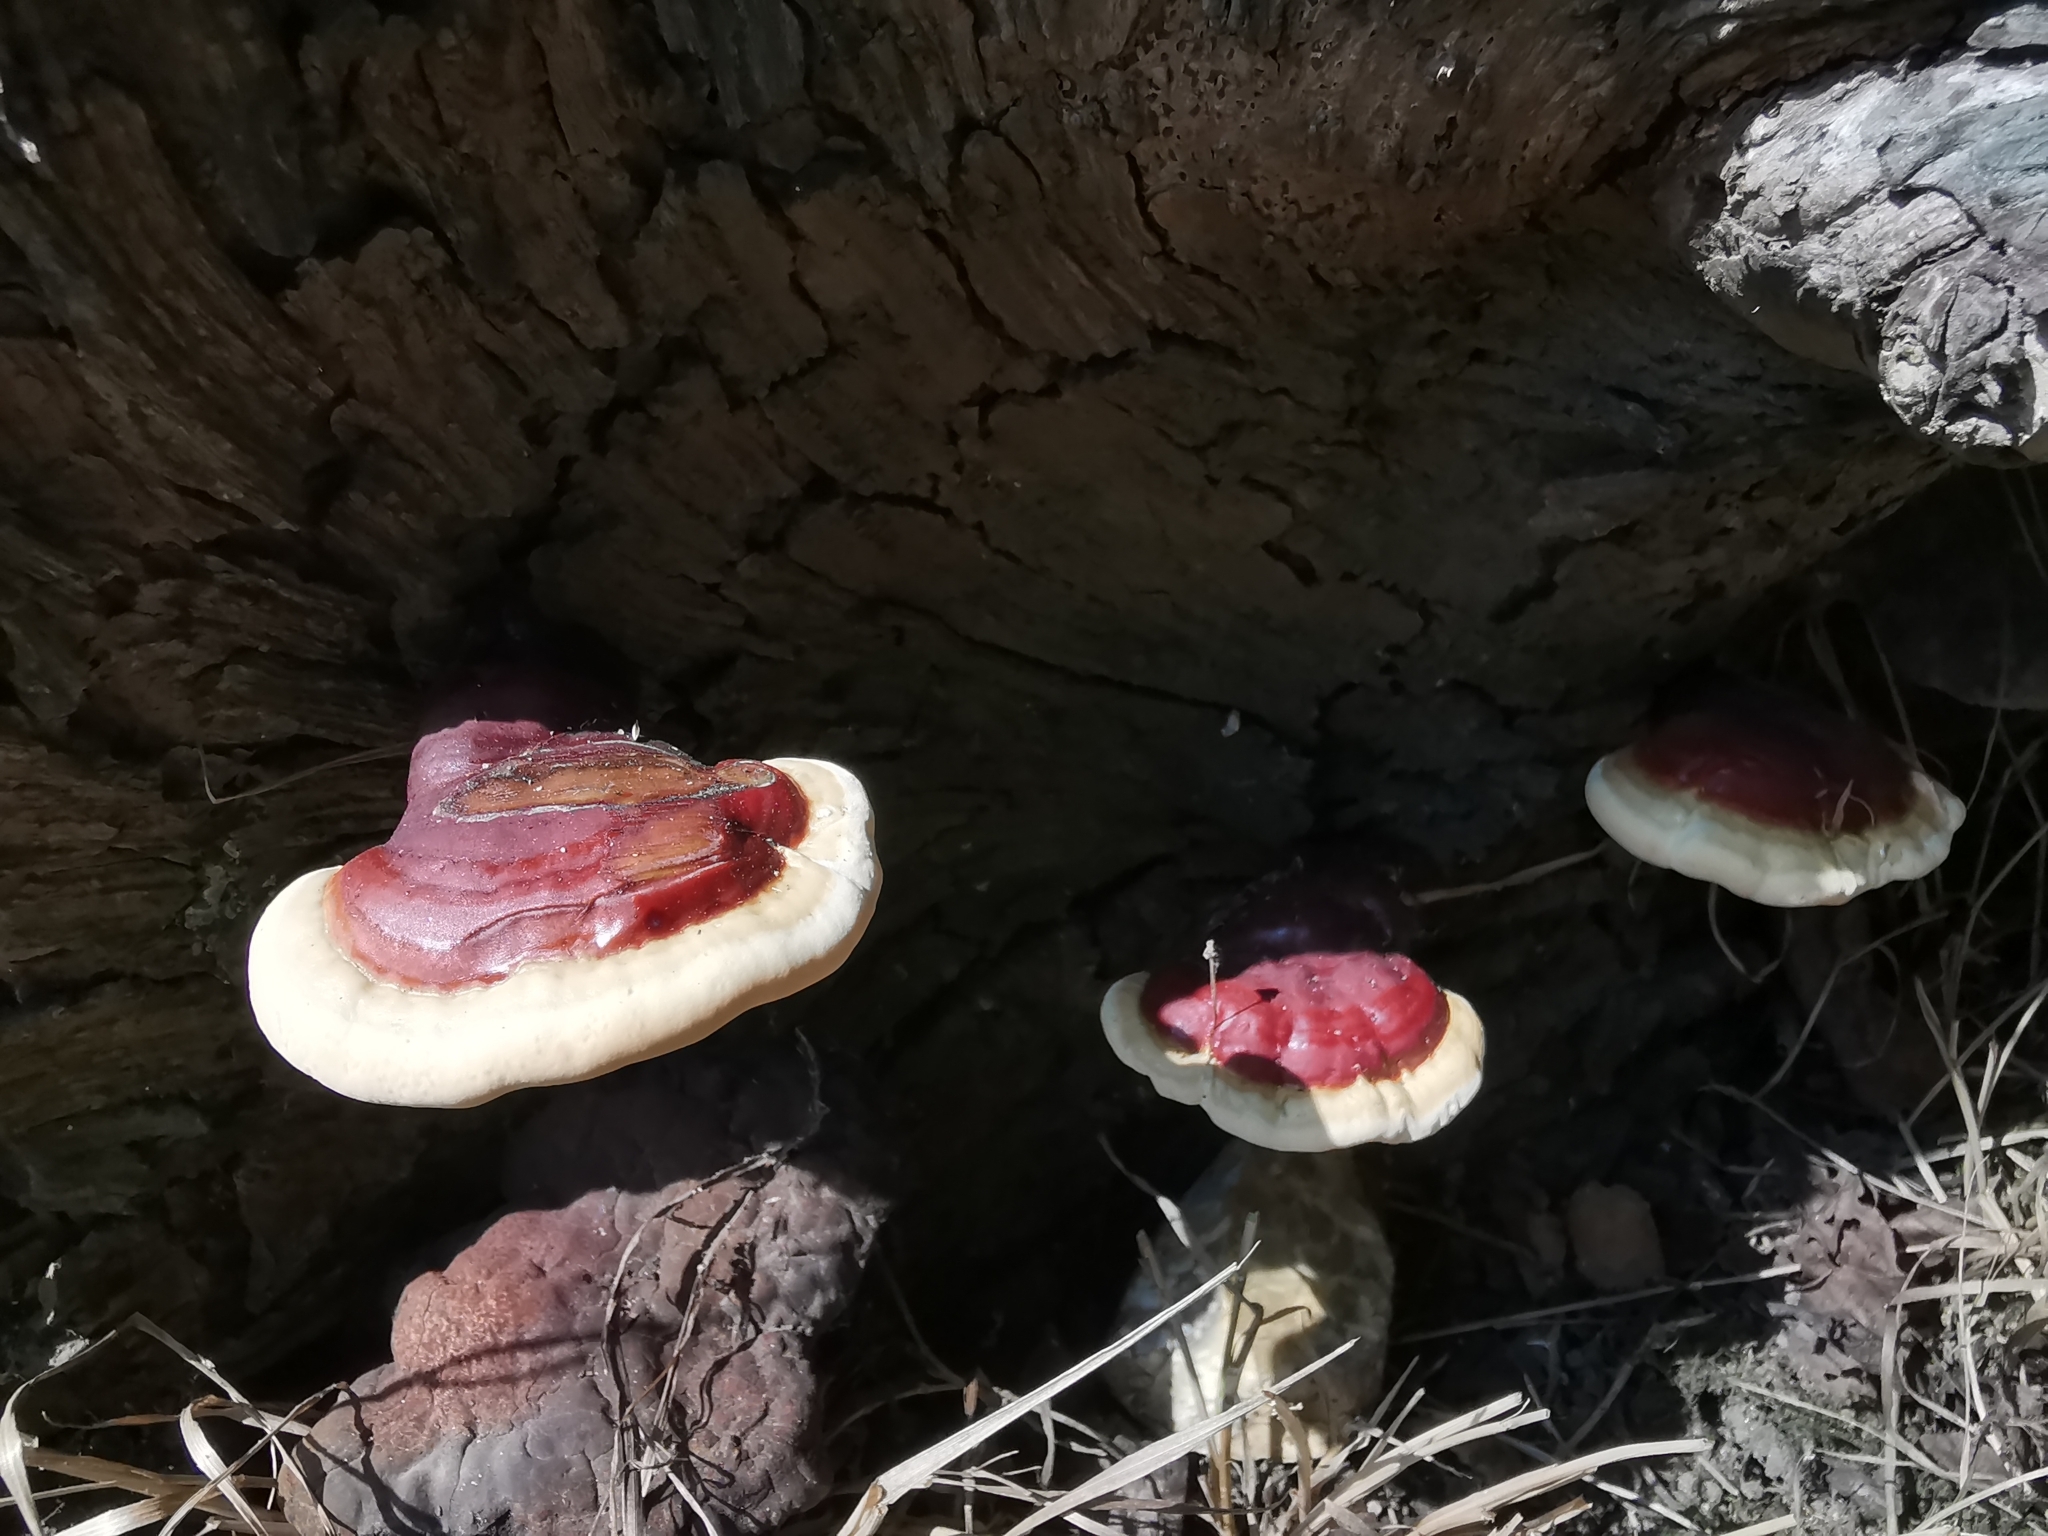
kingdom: Fungi
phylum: Basidiomycota
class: Agaricomycetes
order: Polyporales
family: Polyporaceae
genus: Ganoderma
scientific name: Ganoderma lucidum
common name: Lacquered bracket
